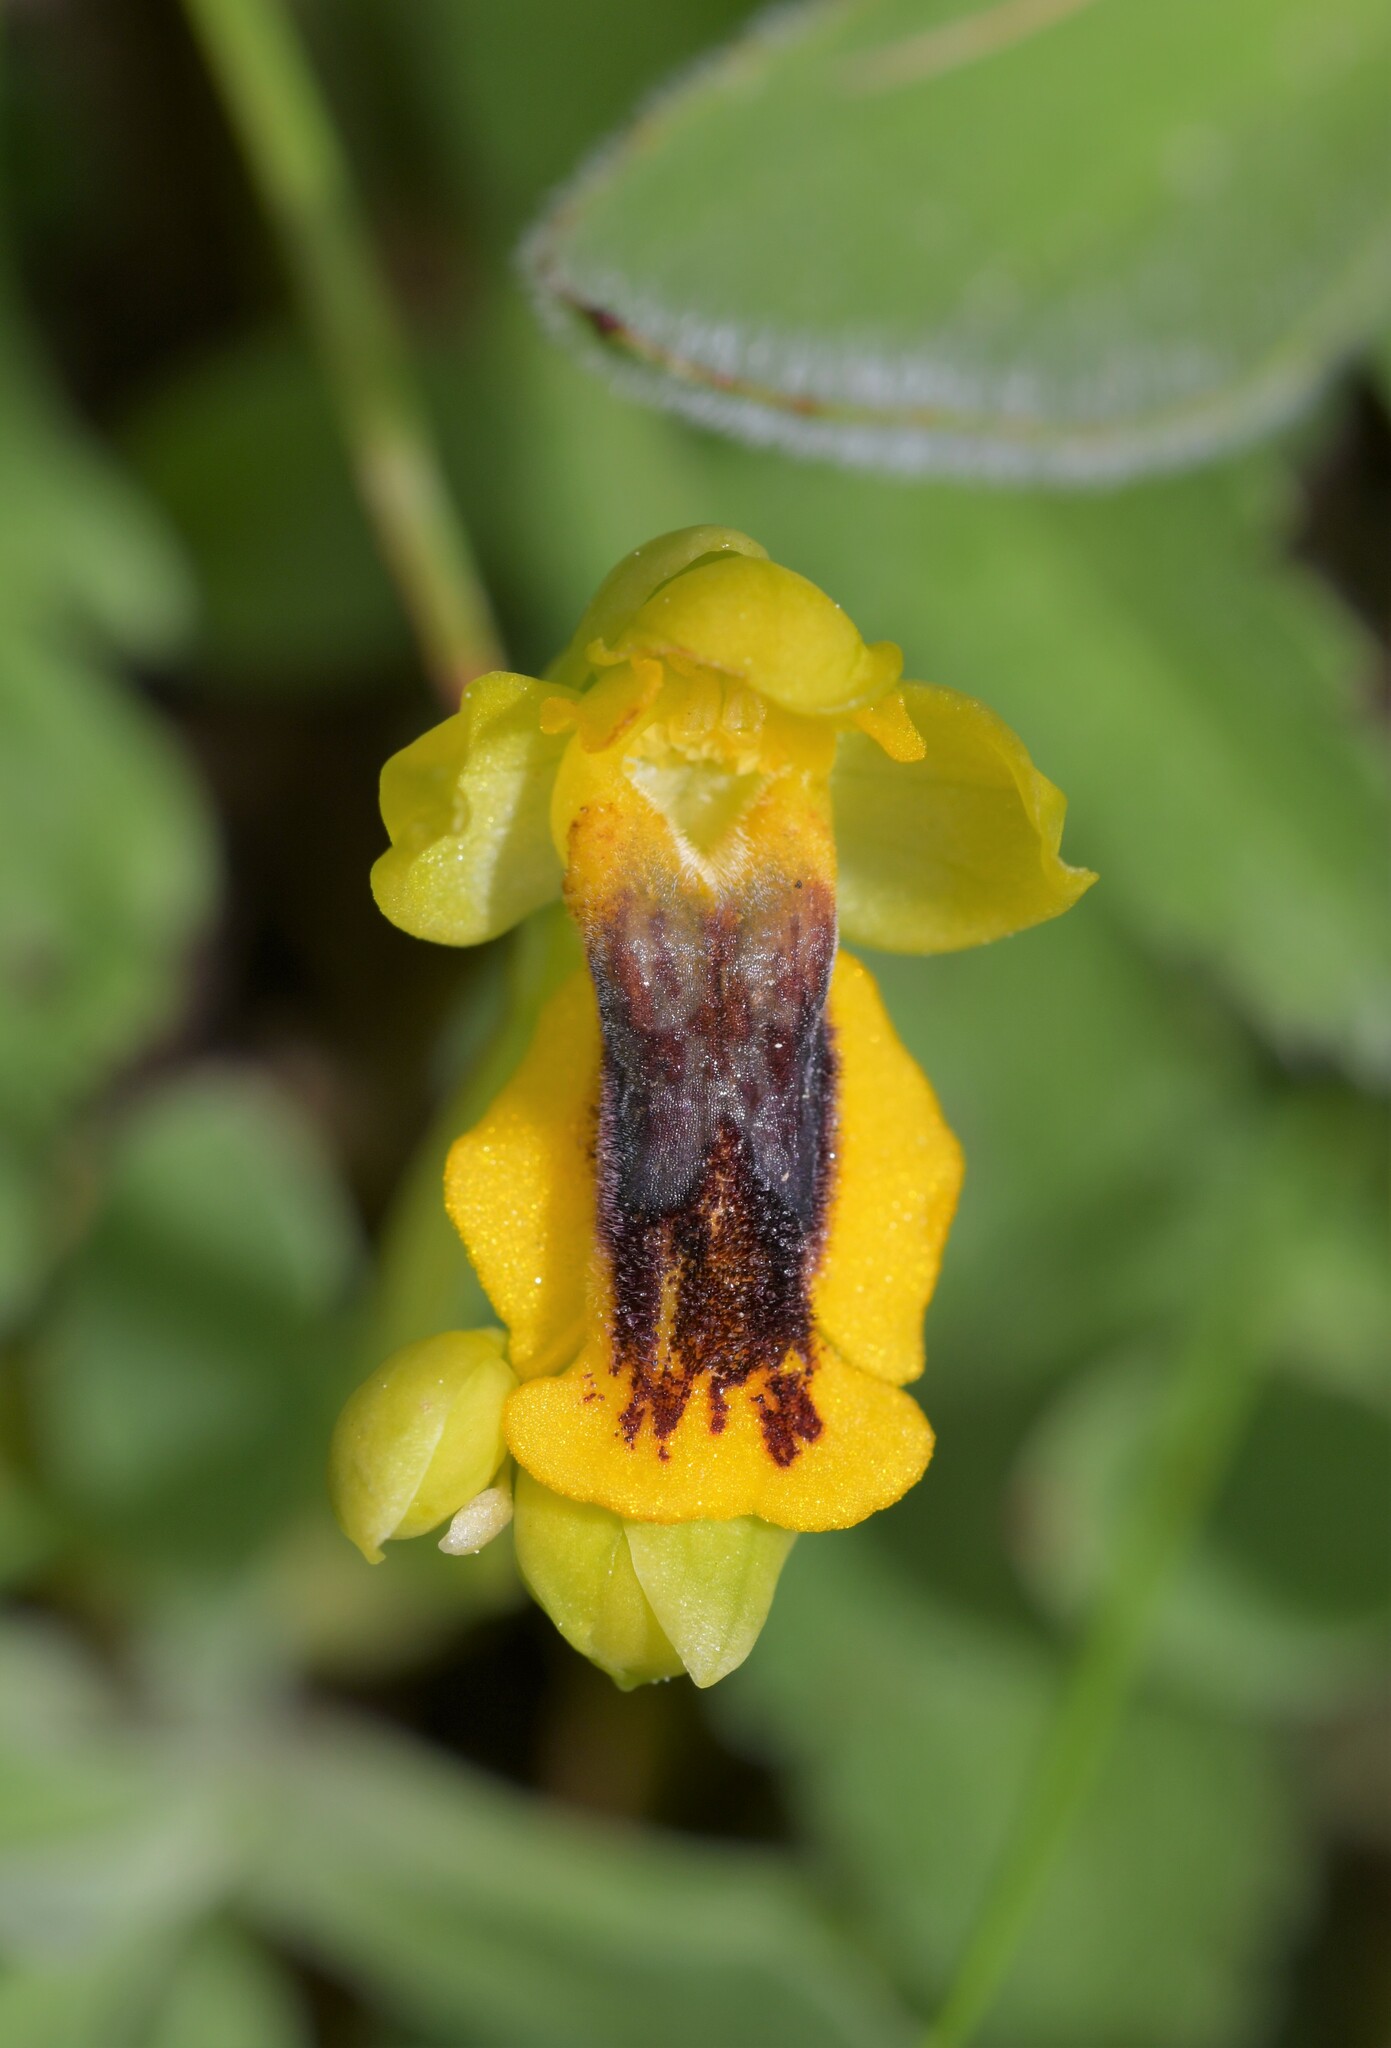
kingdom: Plantae
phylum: Tracheophyta
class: Liliopsida
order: Asparagales
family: Orchidaceae
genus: Ophrys
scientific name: Ophrys lutea
